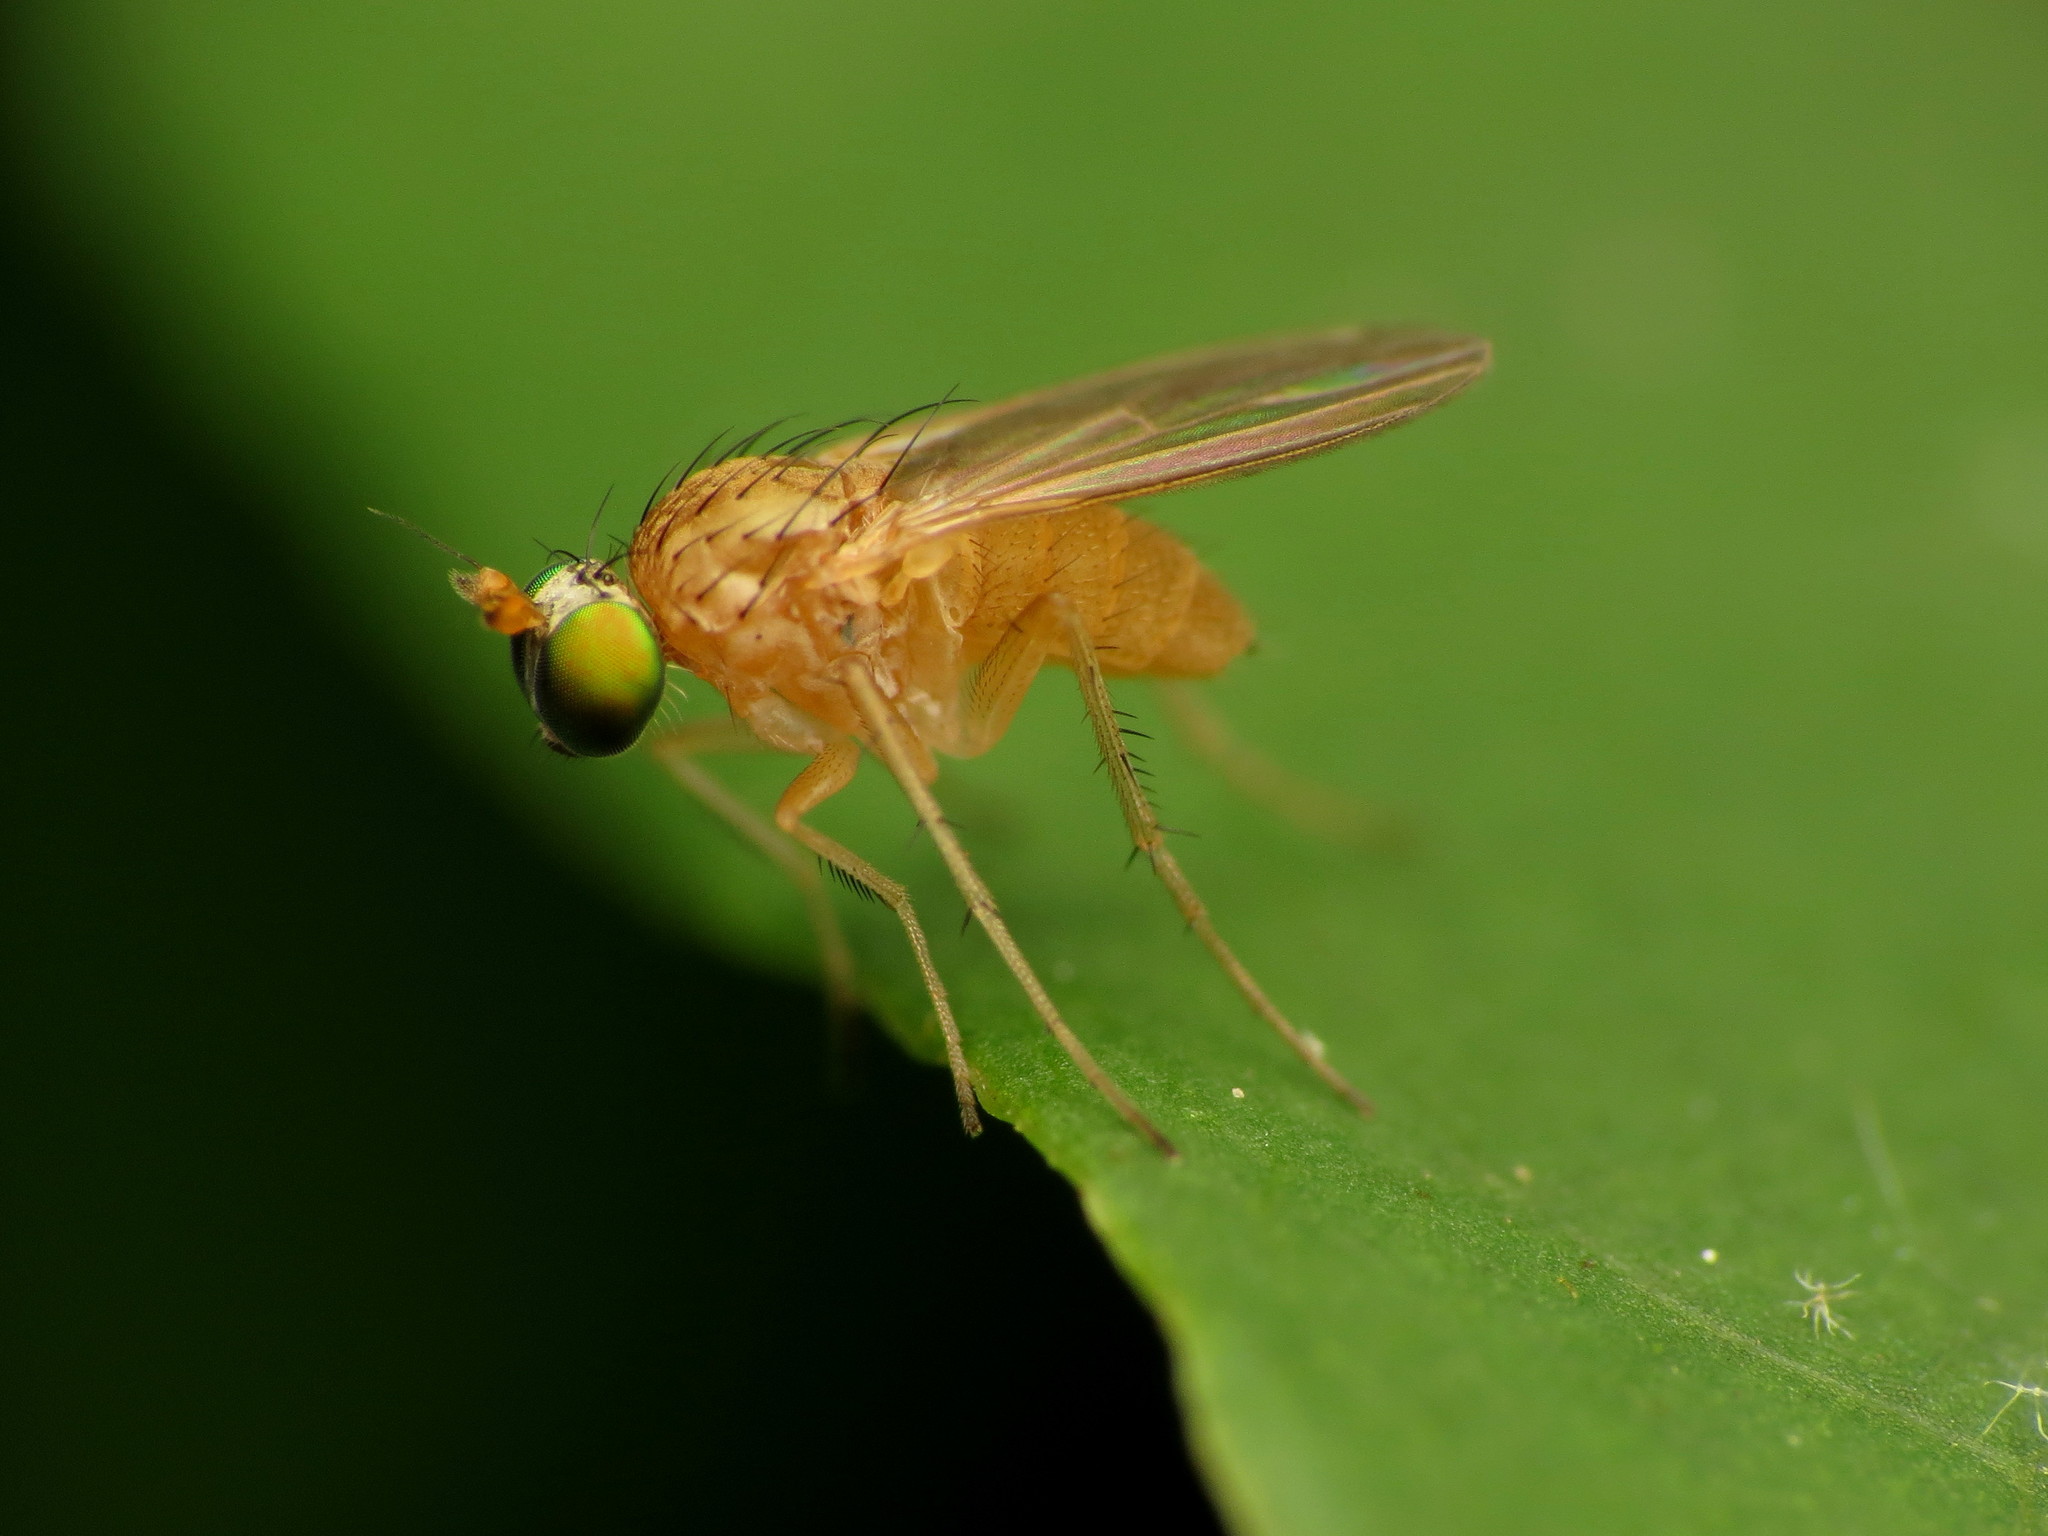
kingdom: Animalia
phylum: Arthropoda
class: Insecta
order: Diptera
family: Dolichopodidae
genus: Gymnopternus
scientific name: Gymnopternus flavus
